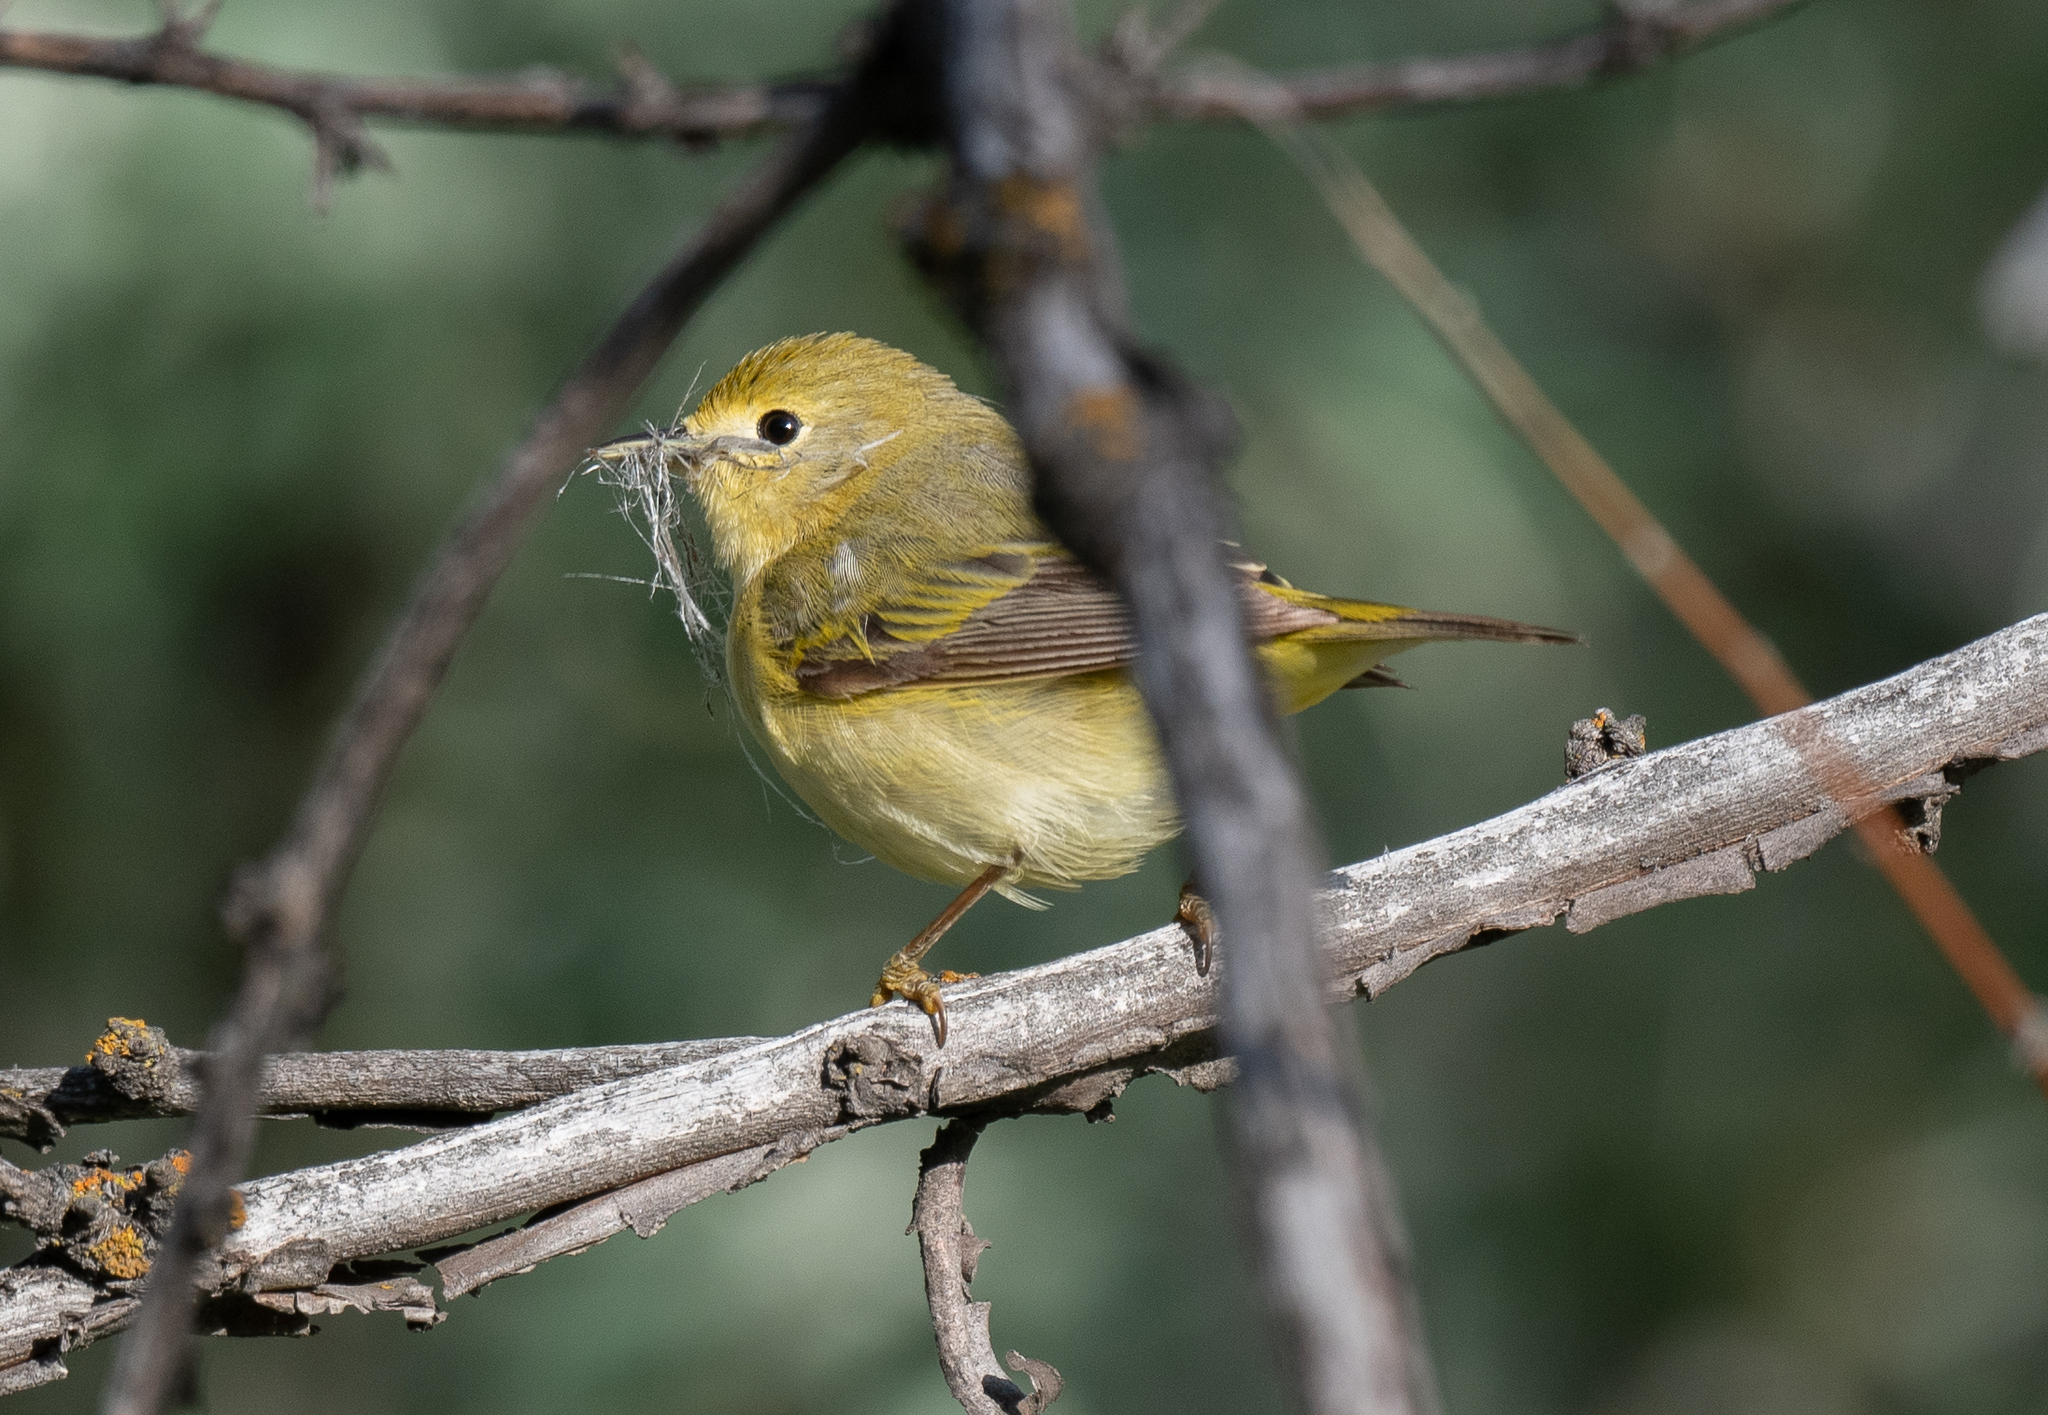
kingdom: Animalia
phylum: Chordata
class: Aves
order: Passeriformes
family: Parulidae
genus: Setophaga
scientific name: Setophaga petechia
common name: Yellow warbler
